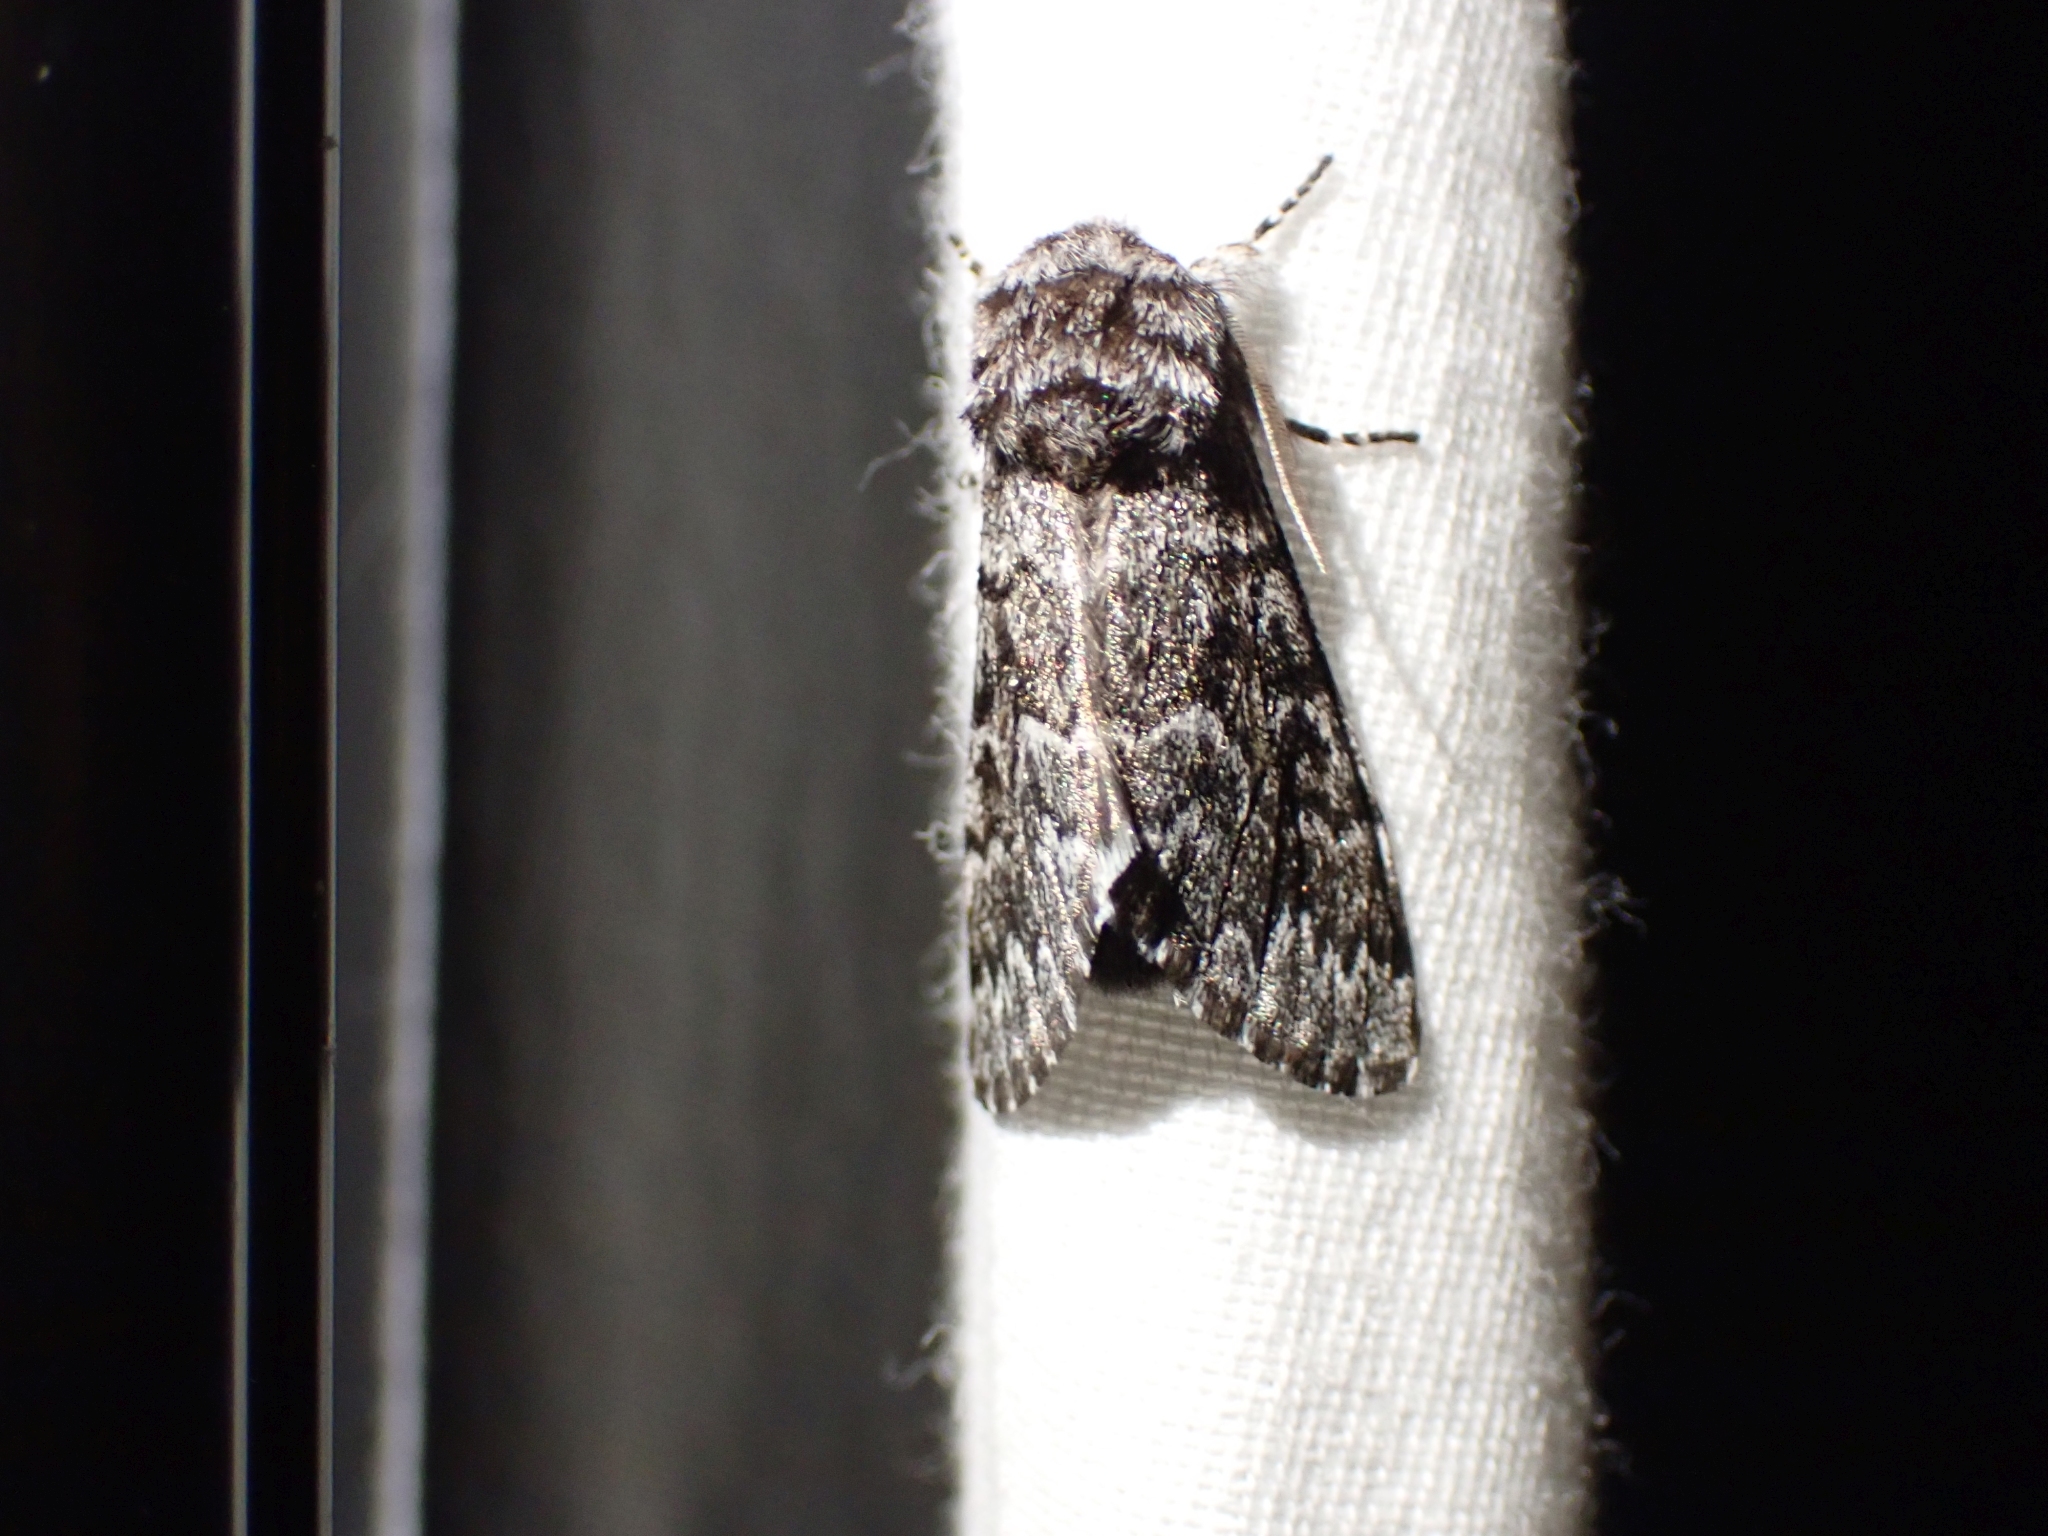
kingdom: Animalia
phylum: Arthropoda
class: Insecta
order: Lepidoptera
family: Noctuidae
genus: Panthea
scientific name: Panthea virginarius
